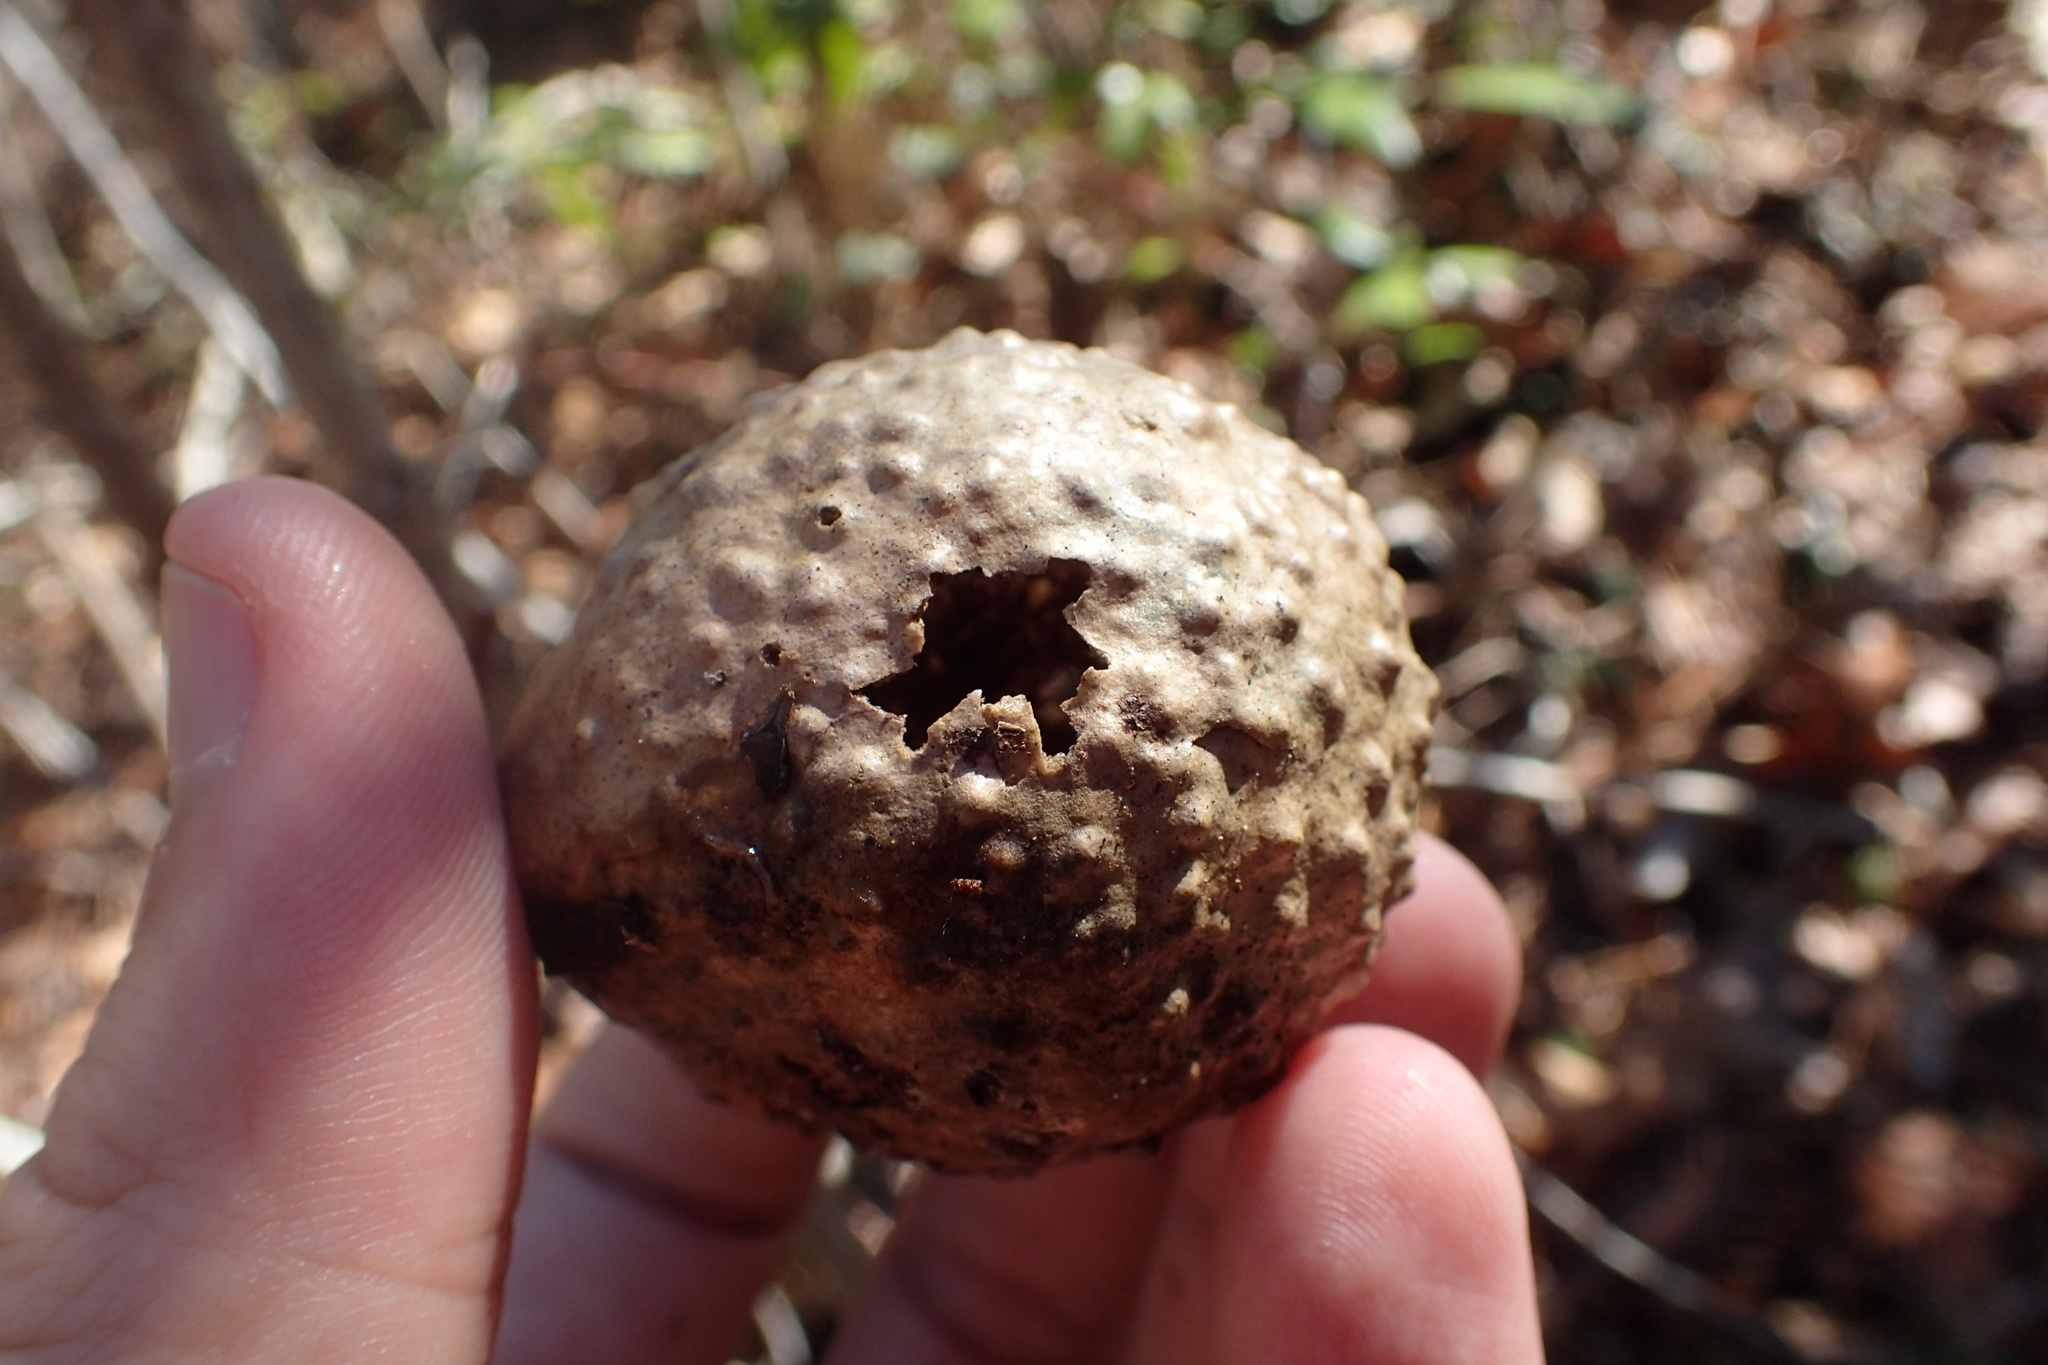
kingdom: Animalia
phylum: Arthropoda
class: Insecta
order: Hymenoptera
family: Cynipidae
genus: Amphibolips
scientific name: Amphibolips
